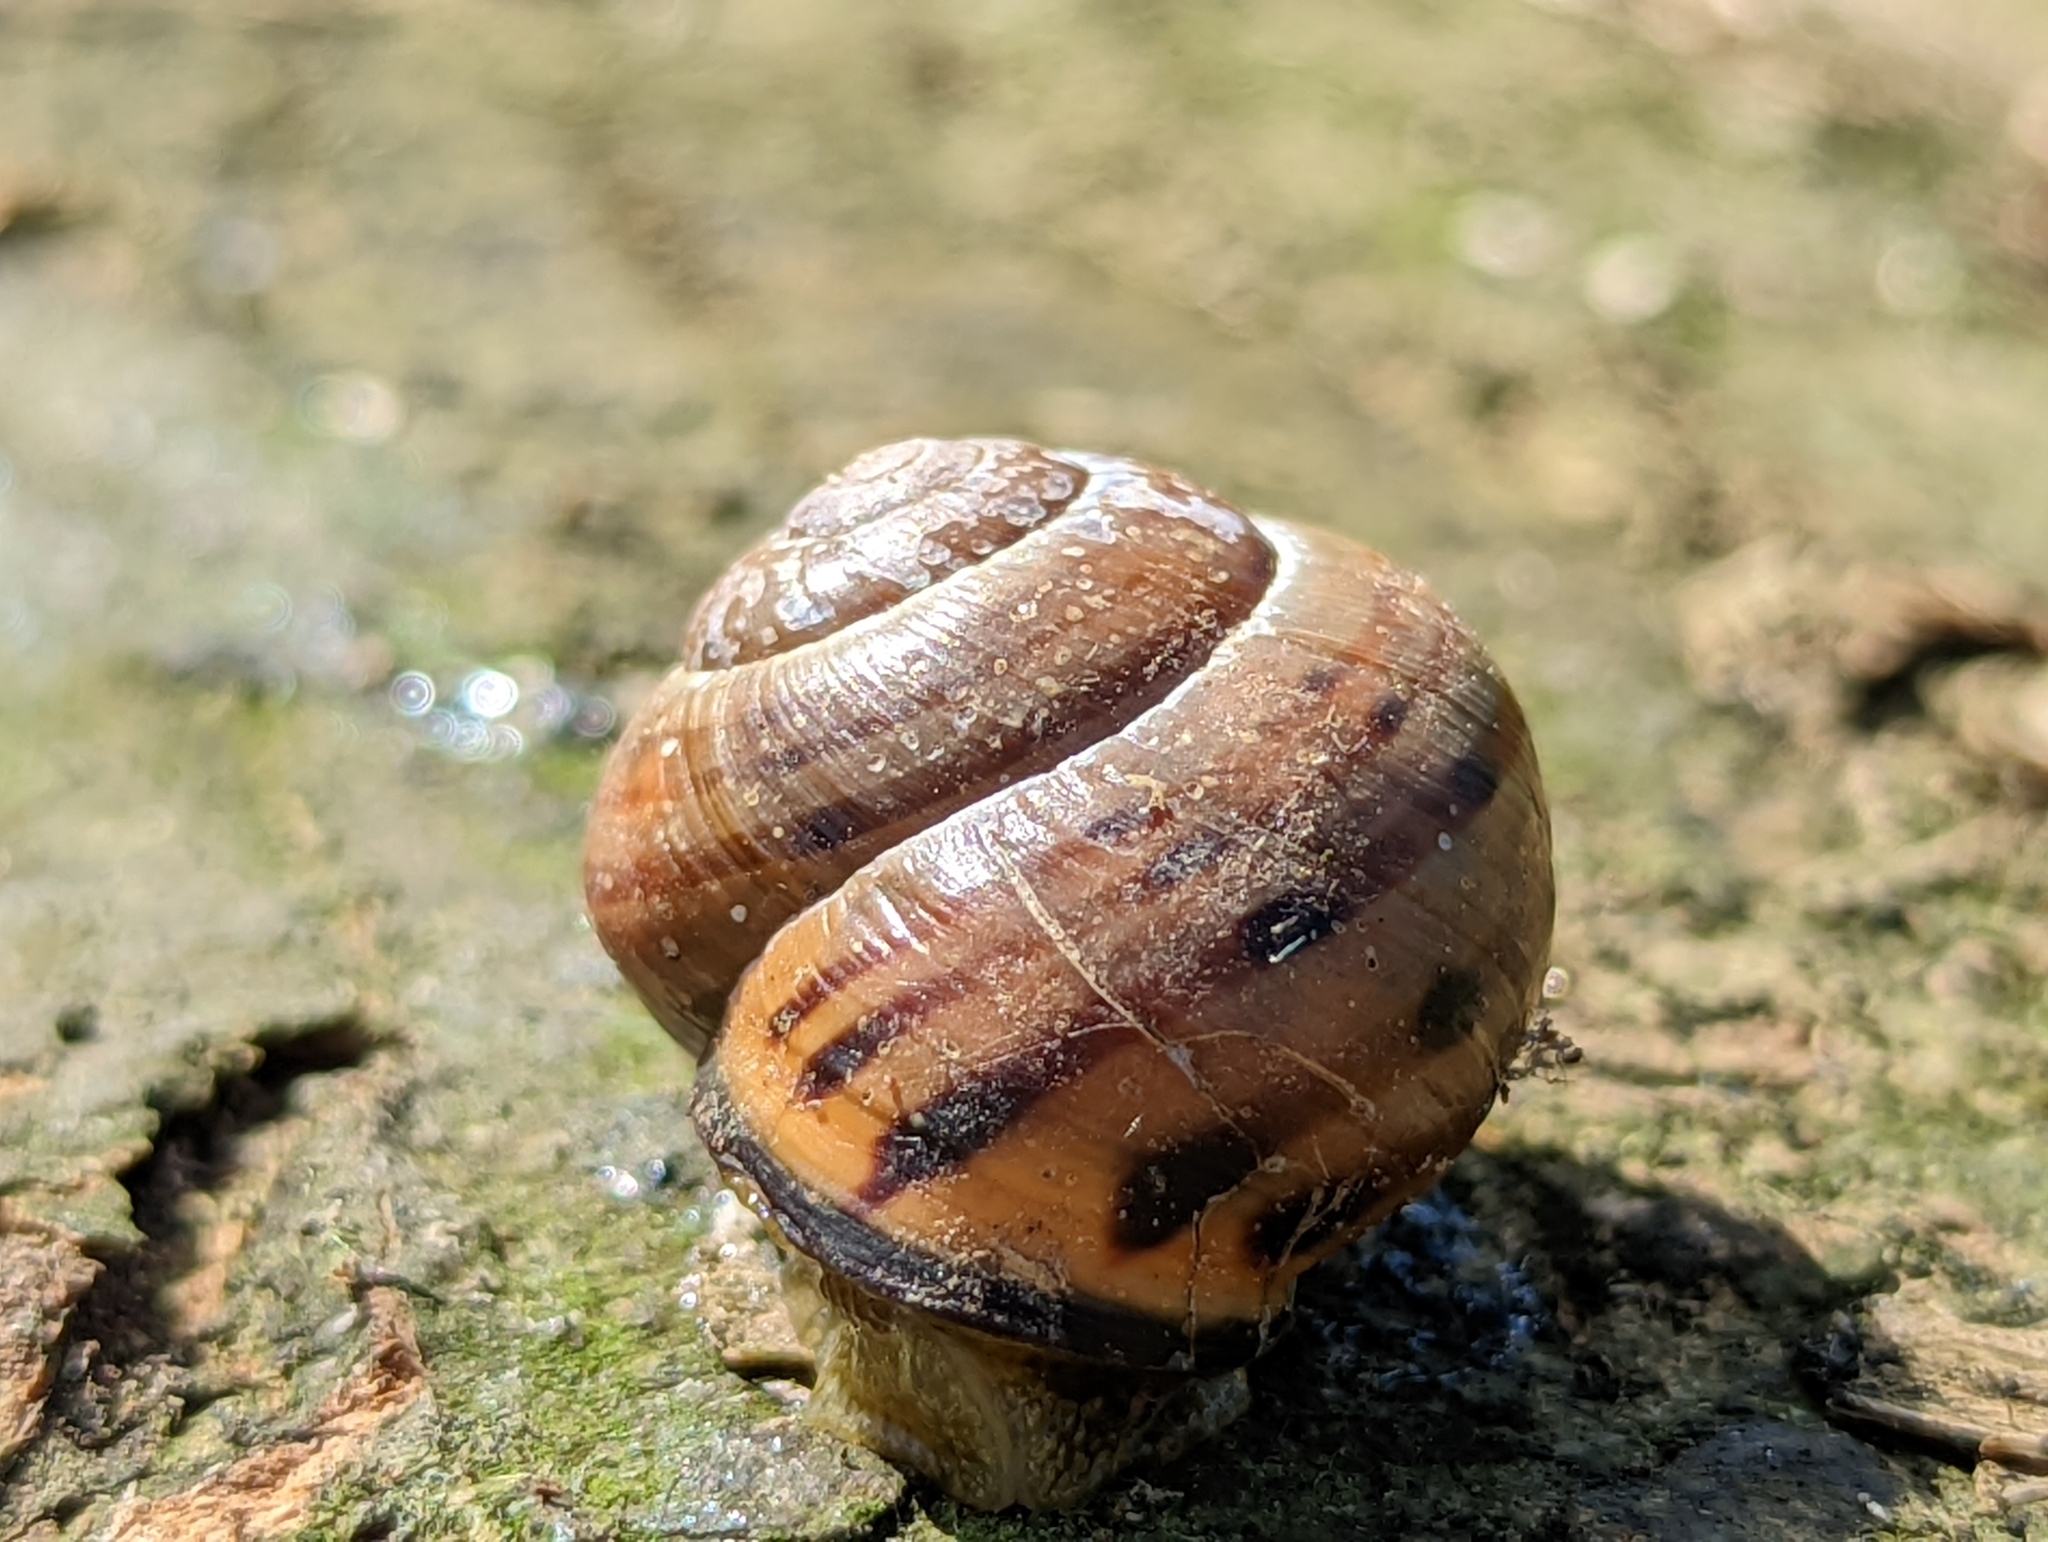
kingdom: Animalia
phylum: Mollusca
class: Gastropoda
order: Stylommatophora
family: Helicidae
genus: Cepaea
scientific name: Cepaea nemoralis
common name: Grovesnail
